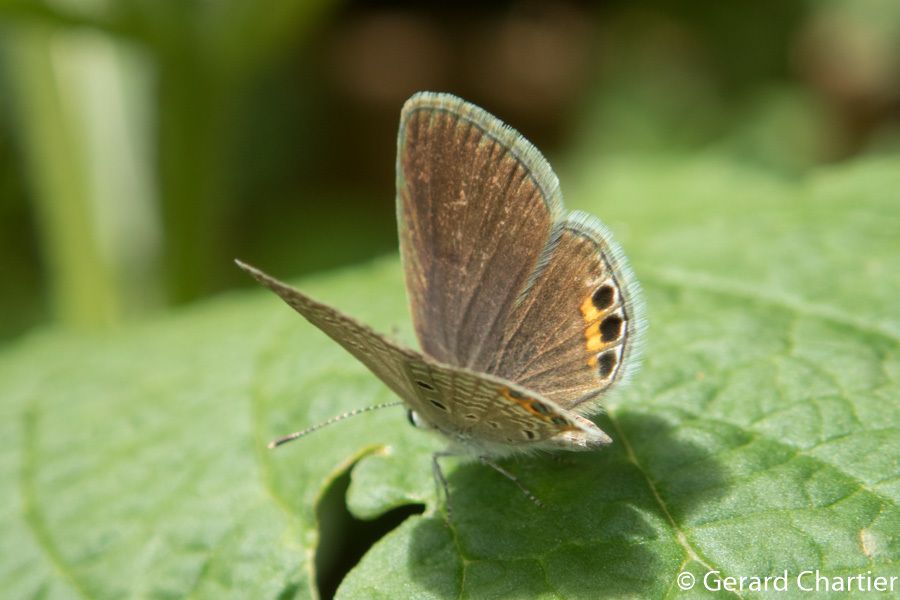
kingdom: Animalia
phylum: Arthropoda
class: Insecta
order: Lepidoptera
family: Lycaenidae
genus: Freyeria
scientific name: Freyeria trochylus
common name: Grass jewel
